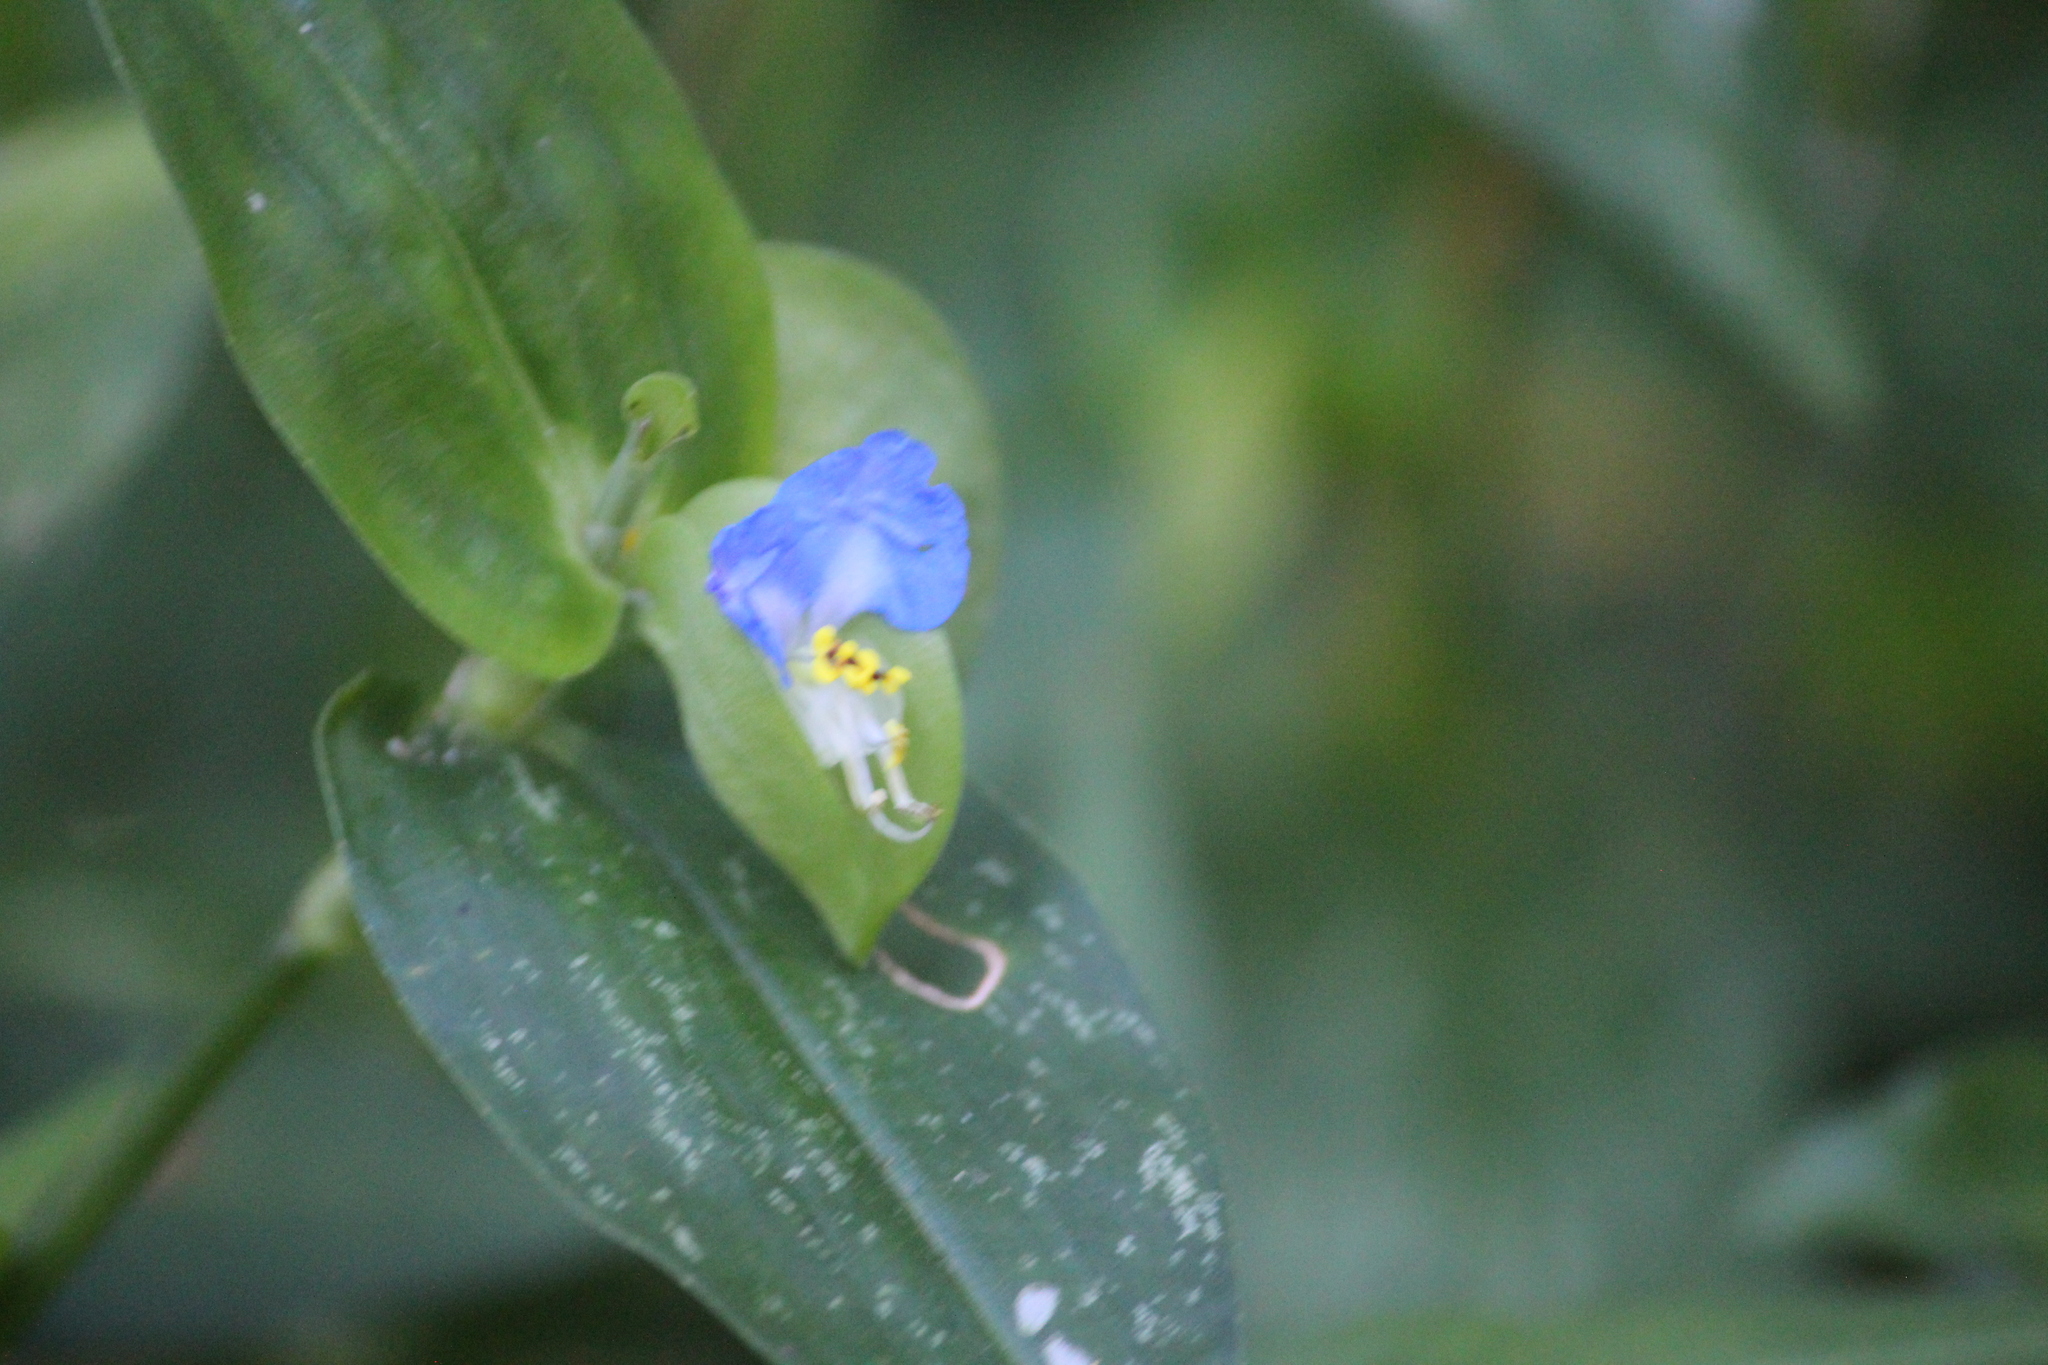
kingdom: Plantae
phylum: Tracheophyta
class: Liliopsida
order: Commelinales
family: Commelinaceae
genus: Commelina
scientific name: Commelina communis
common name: Asiatic dayflower
